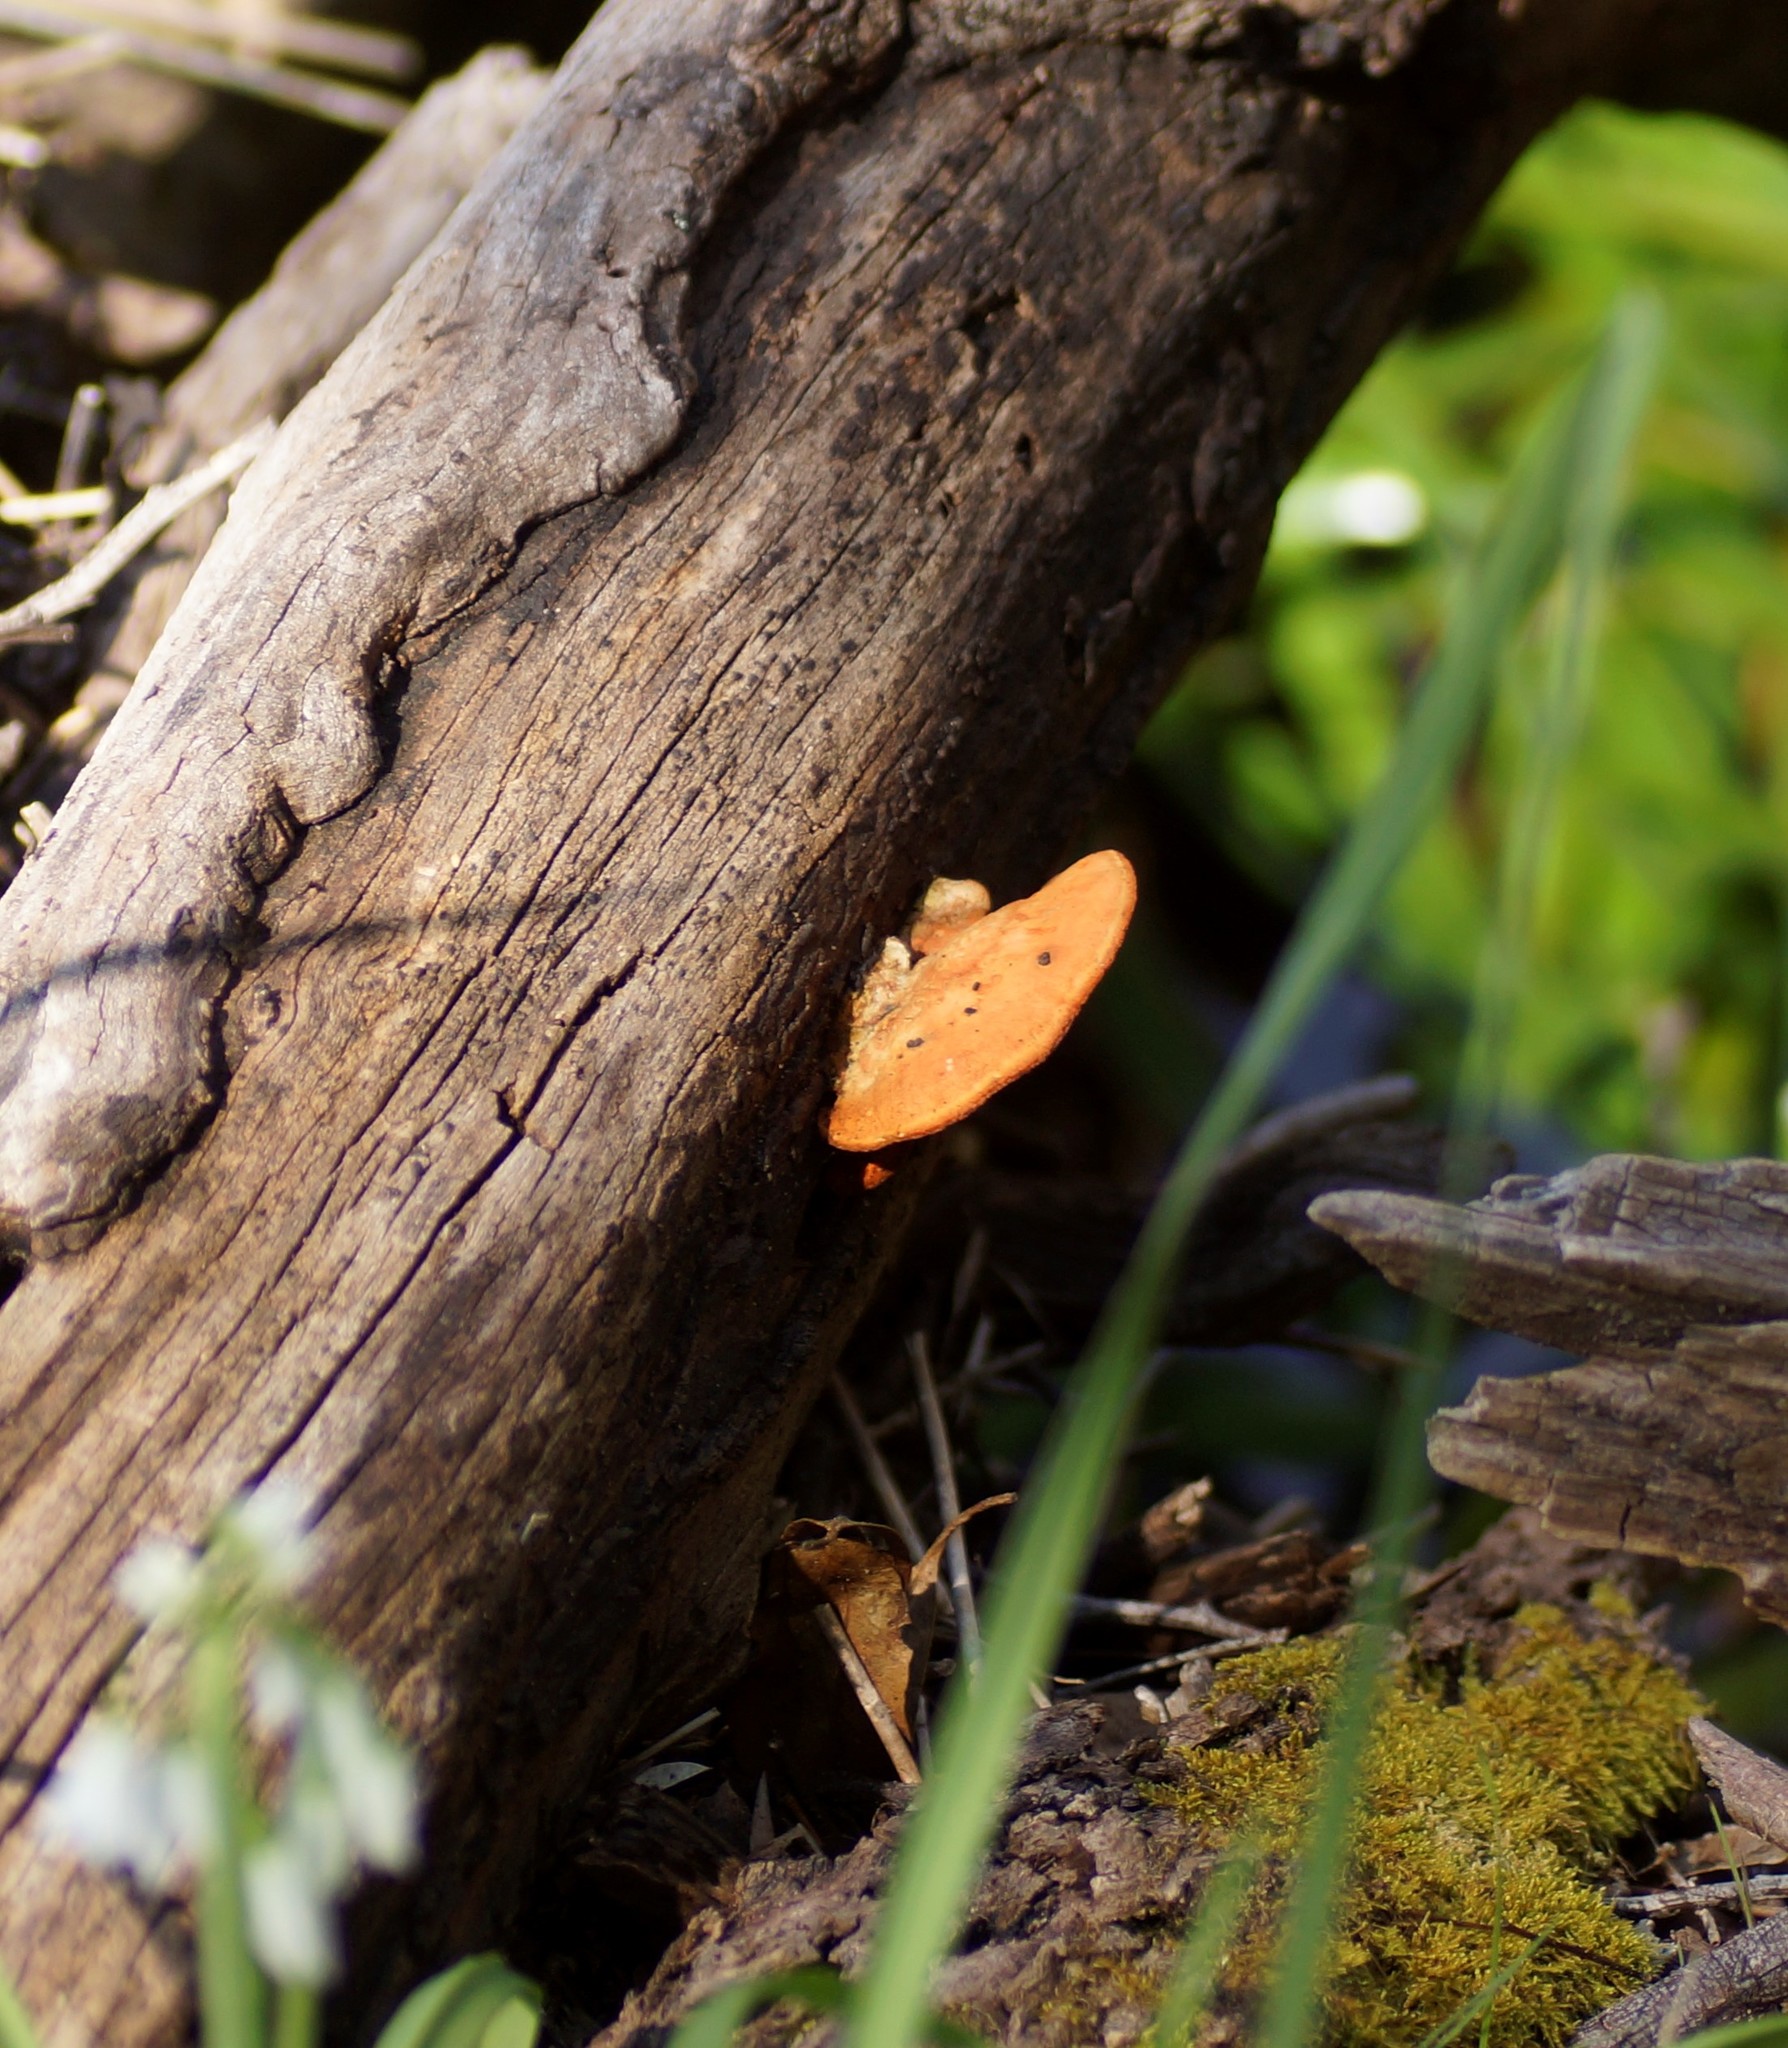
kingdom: Fungi
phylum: Basidiomycota
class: Agaricomycetes
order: Polyporales
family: Polyporaceae
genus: Trametes
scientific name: Trametes coccinea
